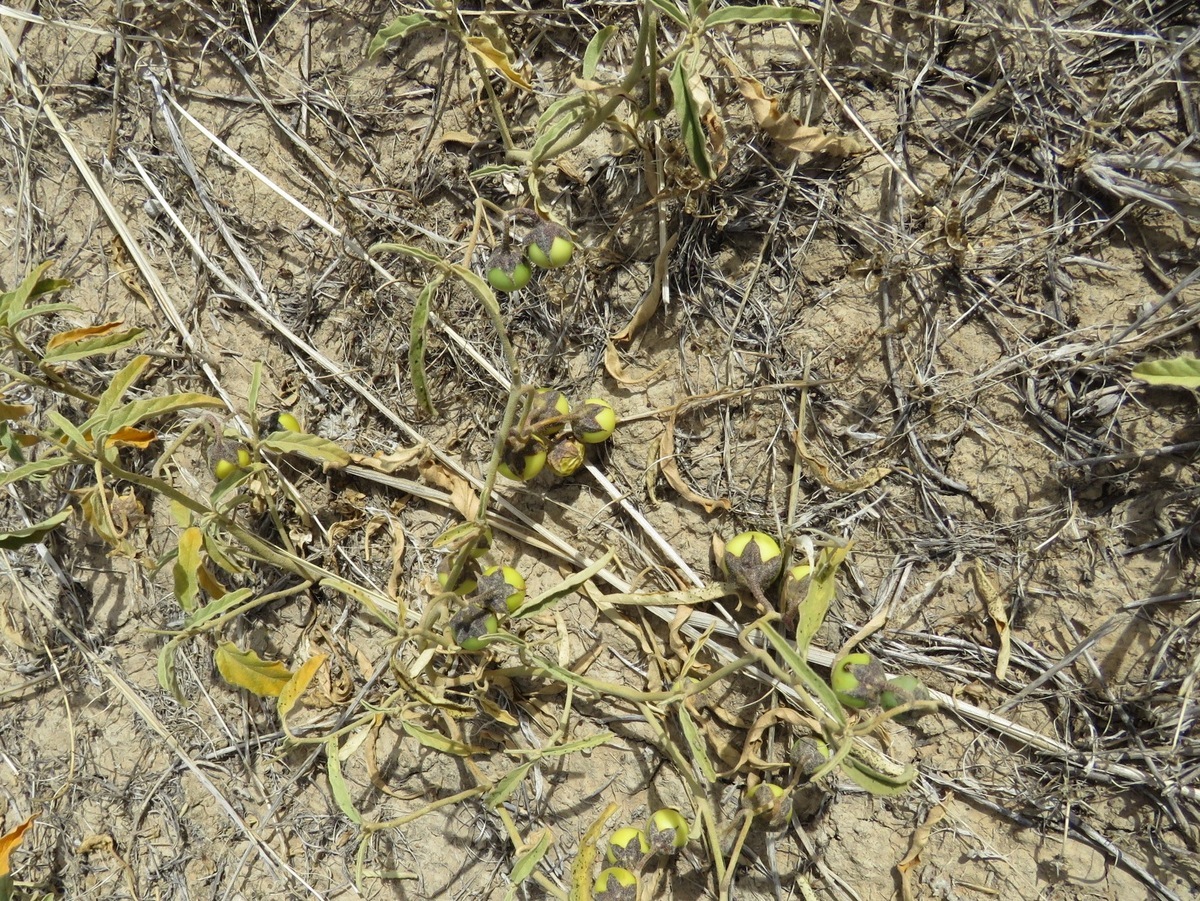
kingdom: Plantae
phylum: Tracheophyta
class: Magnoliopsida
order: Solanales
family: Solanaceae
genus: Solanum
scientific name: Solanum esuriale
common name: Wild tomato
